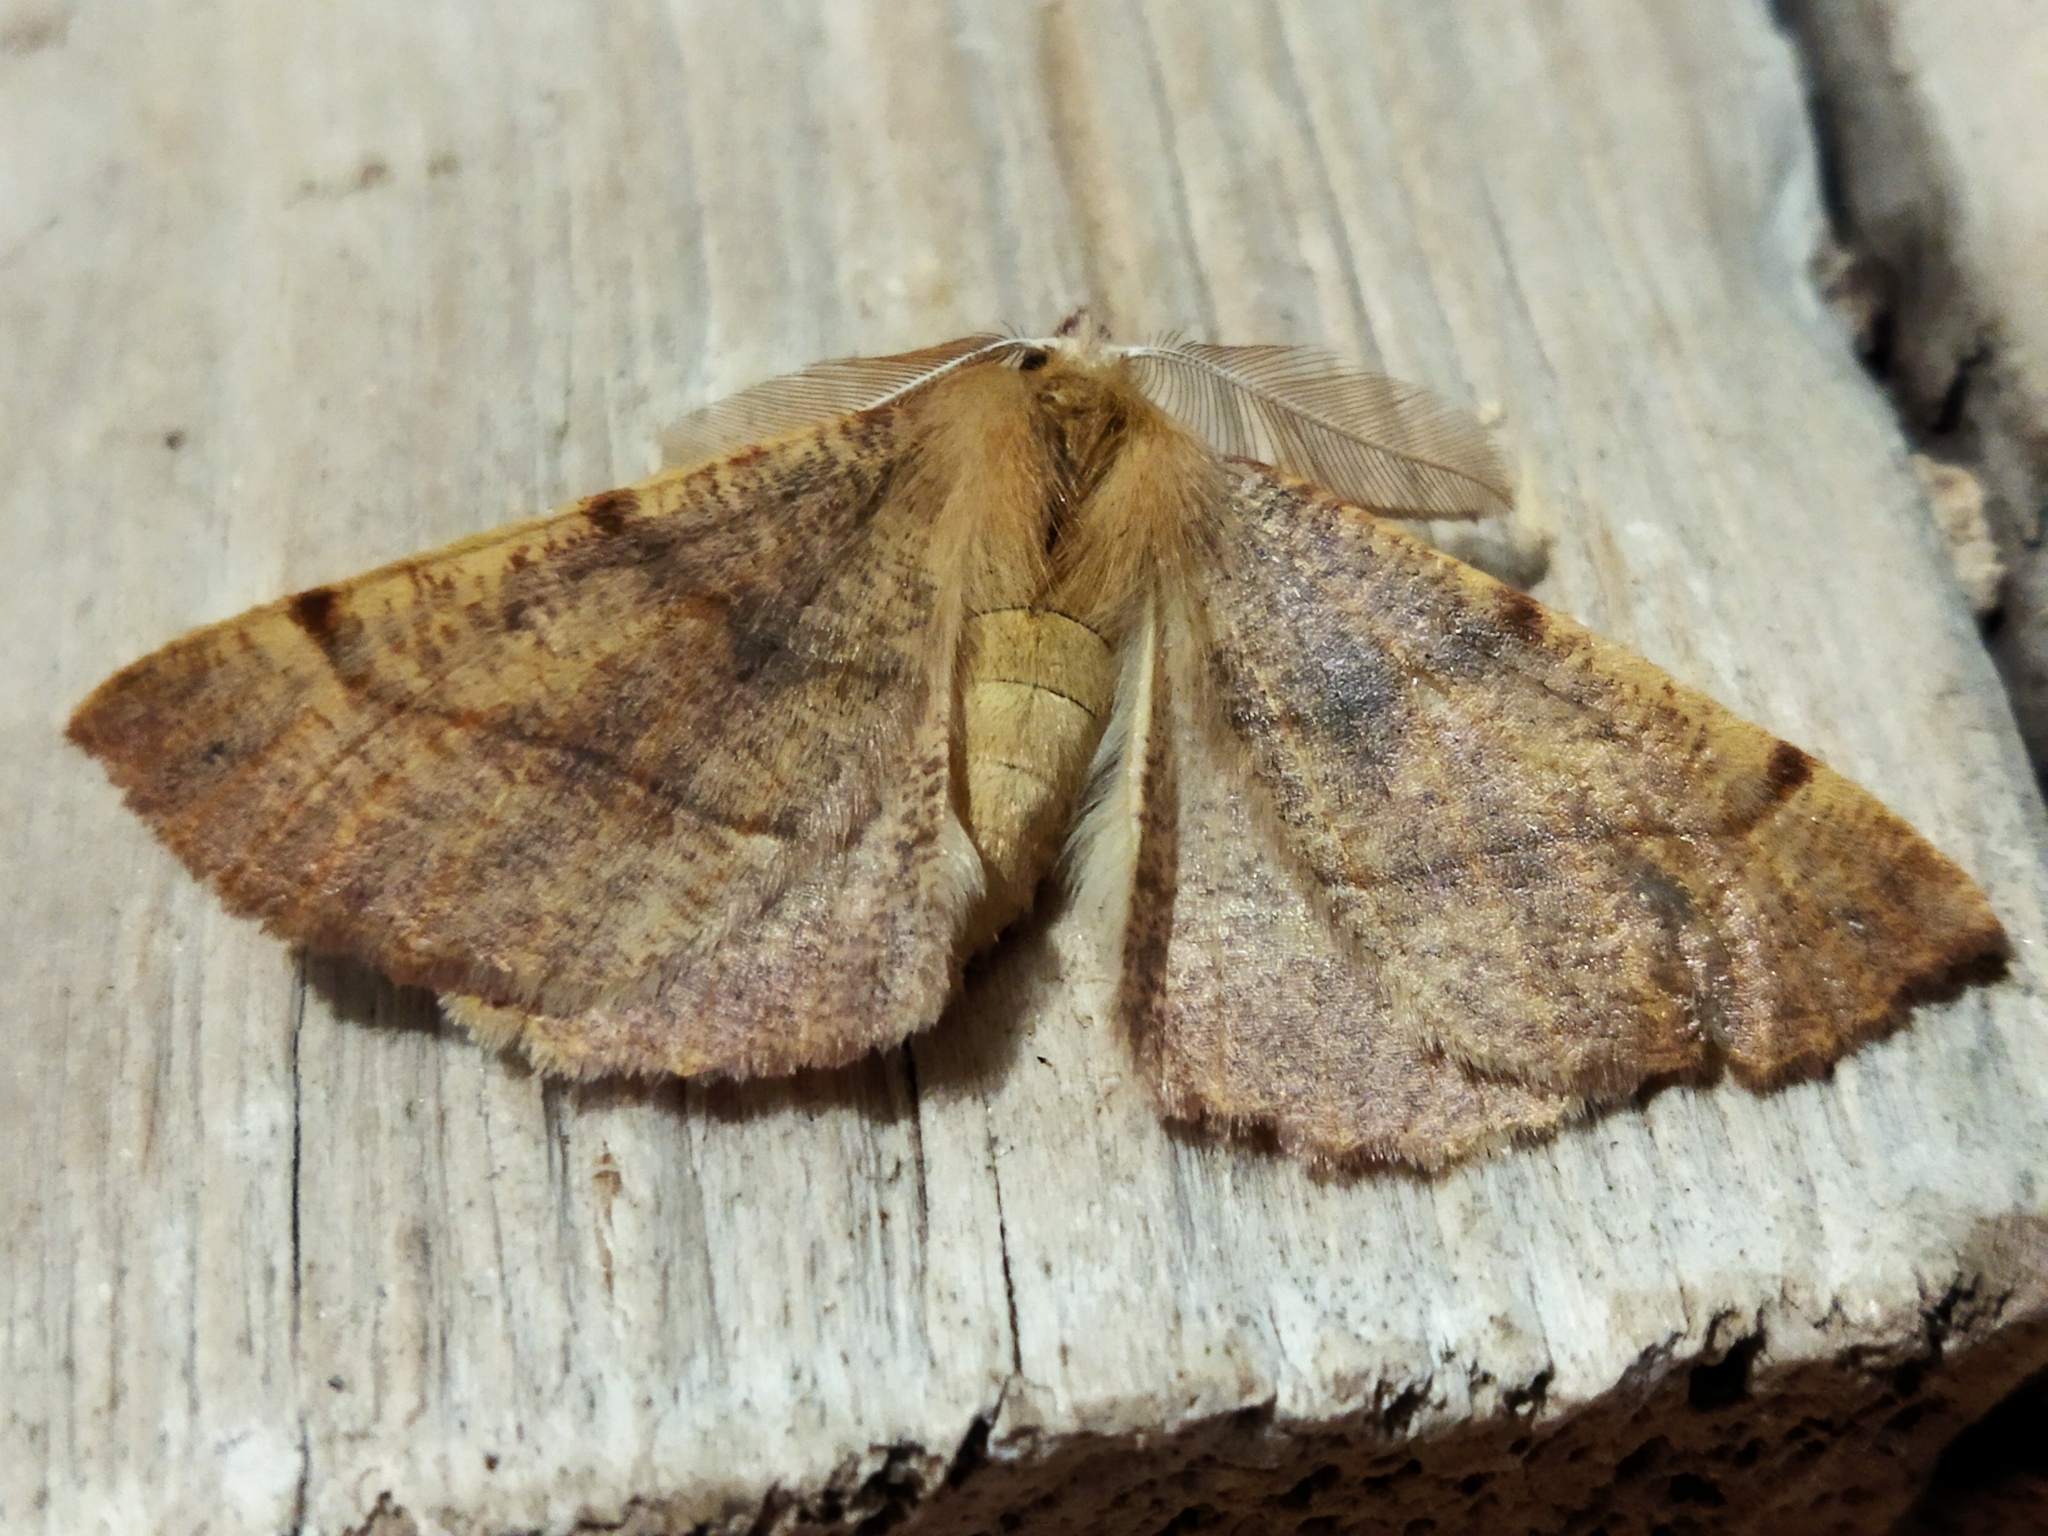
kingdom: Animalia
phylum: Arthropoda
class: Insecta
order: Lepidoptera
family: Geometridae
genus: Colotois
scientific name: Colotois pennaria
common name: Feathered thorn
